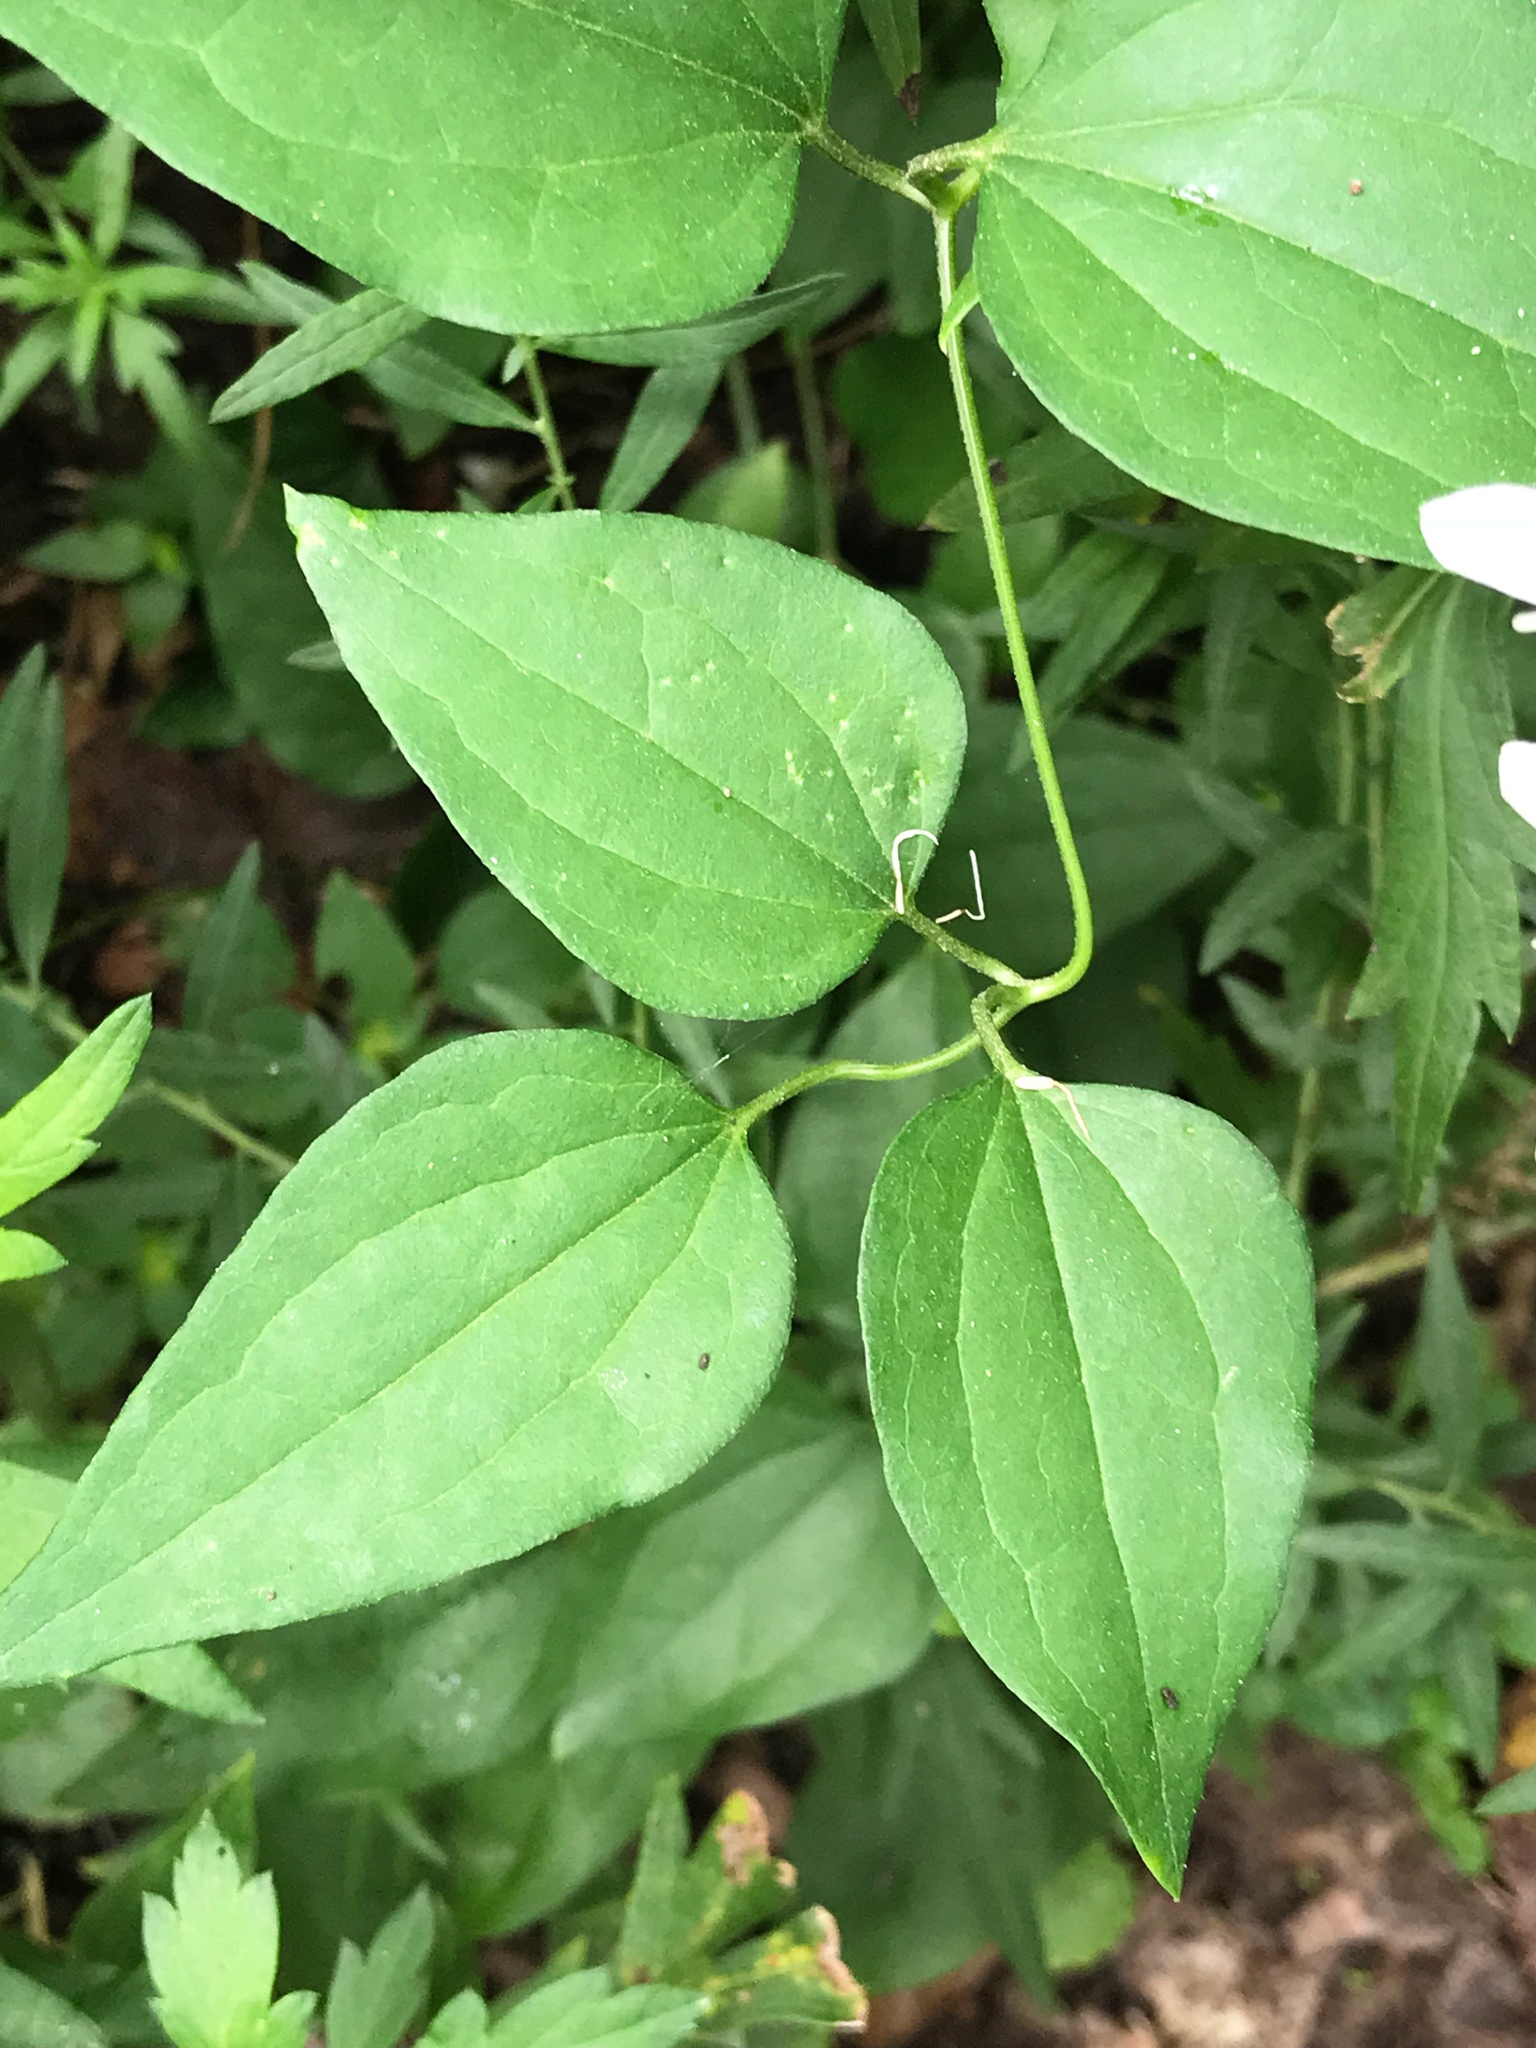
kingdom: Plantae
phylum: Tracheophyta
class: Magnoliopsida
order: Ranunculales
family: Ranunculaceae
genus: Clematis
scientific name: Clematis terniflora
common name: Sweet autumn clematis
